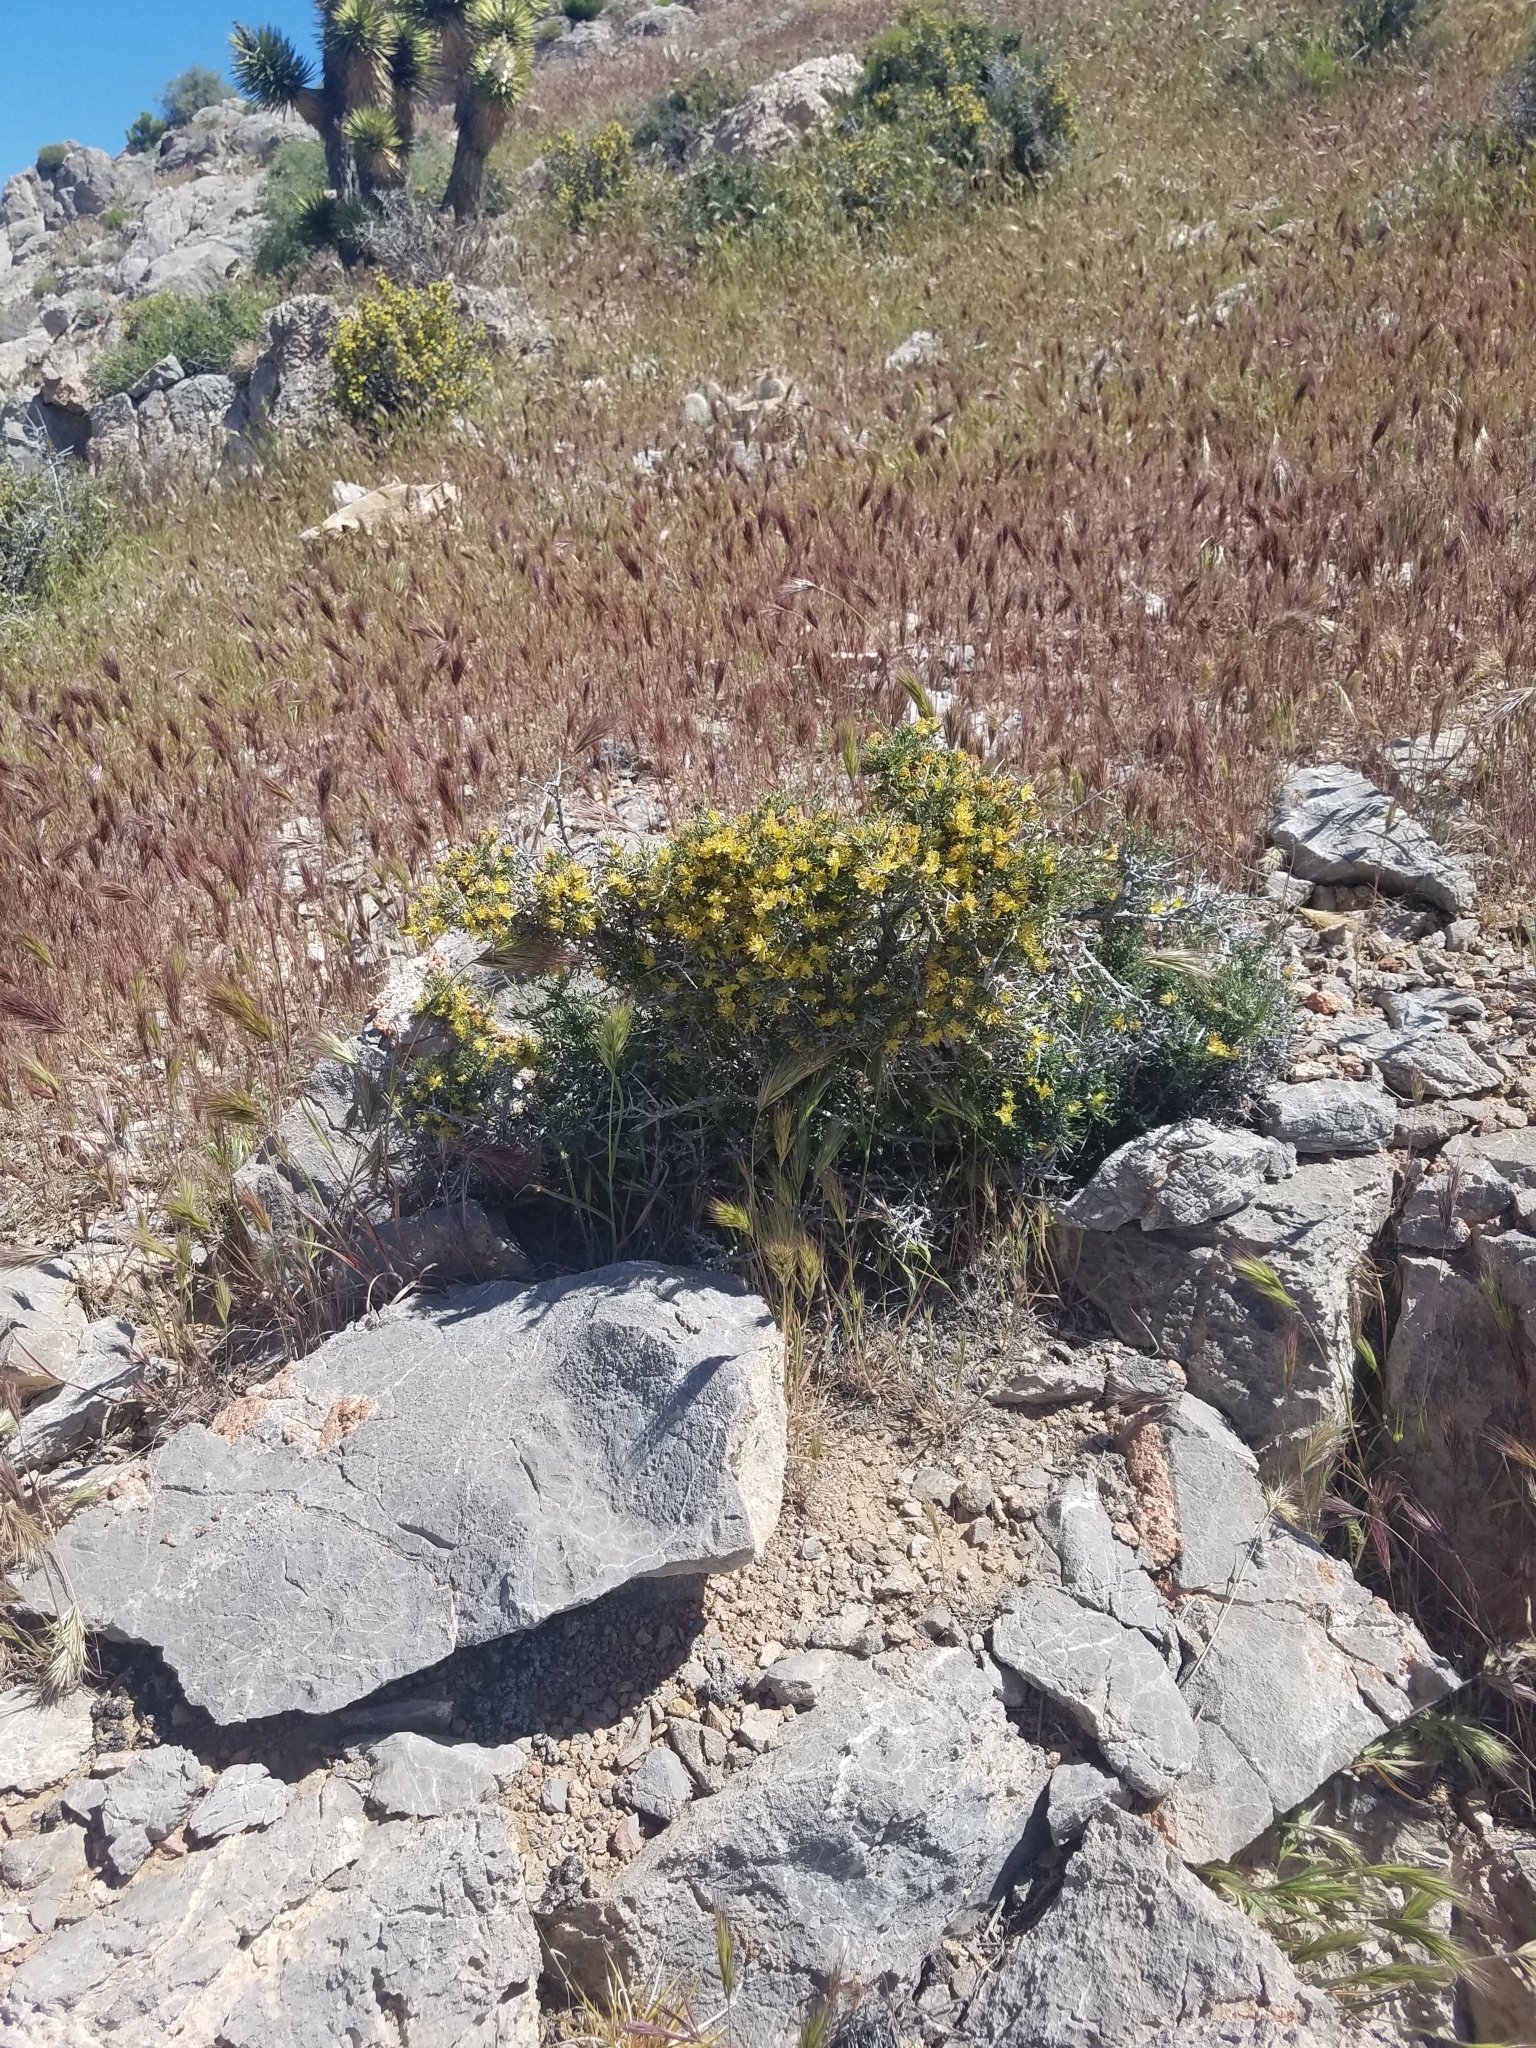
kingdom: Plantae
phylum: Tracheophyta
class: Magnoliopsida
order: Rosales
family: Rosaceae
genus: Coleogyne
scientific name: Coleogyne ramosissima
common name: Blackbrush
